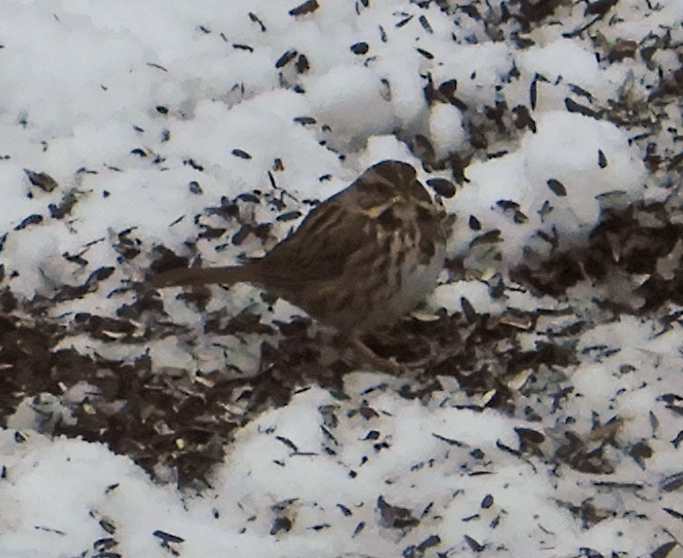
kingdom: Animalia
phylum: Chordata
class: Aves
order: Passeriformes
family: Passerellidae
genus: Melospiza
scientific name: Melospiza melodia
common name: Song sparrow
